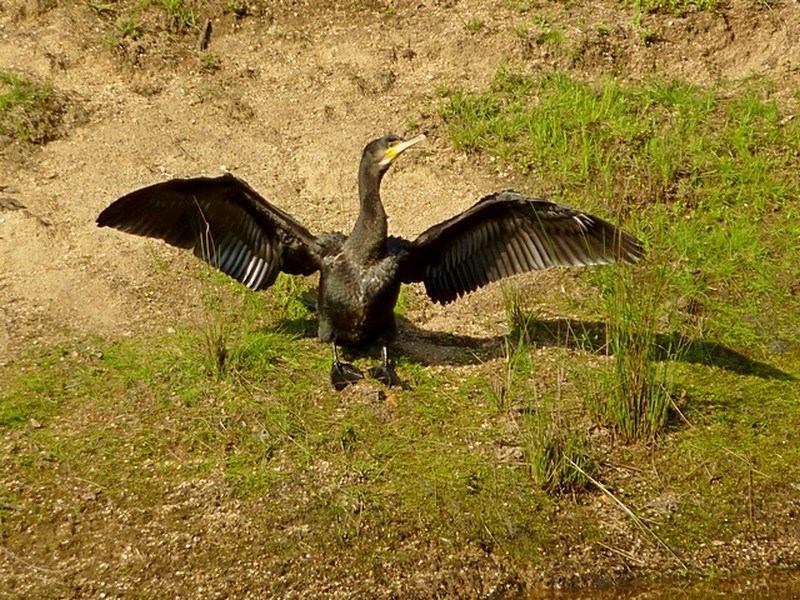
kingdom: Animalia
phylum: Chordata
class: Aves
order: Suliformes
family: Phalacrocoracidae
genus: Phalacrocorax
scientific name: Phalacrocorax carbo
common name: Great cormorant
